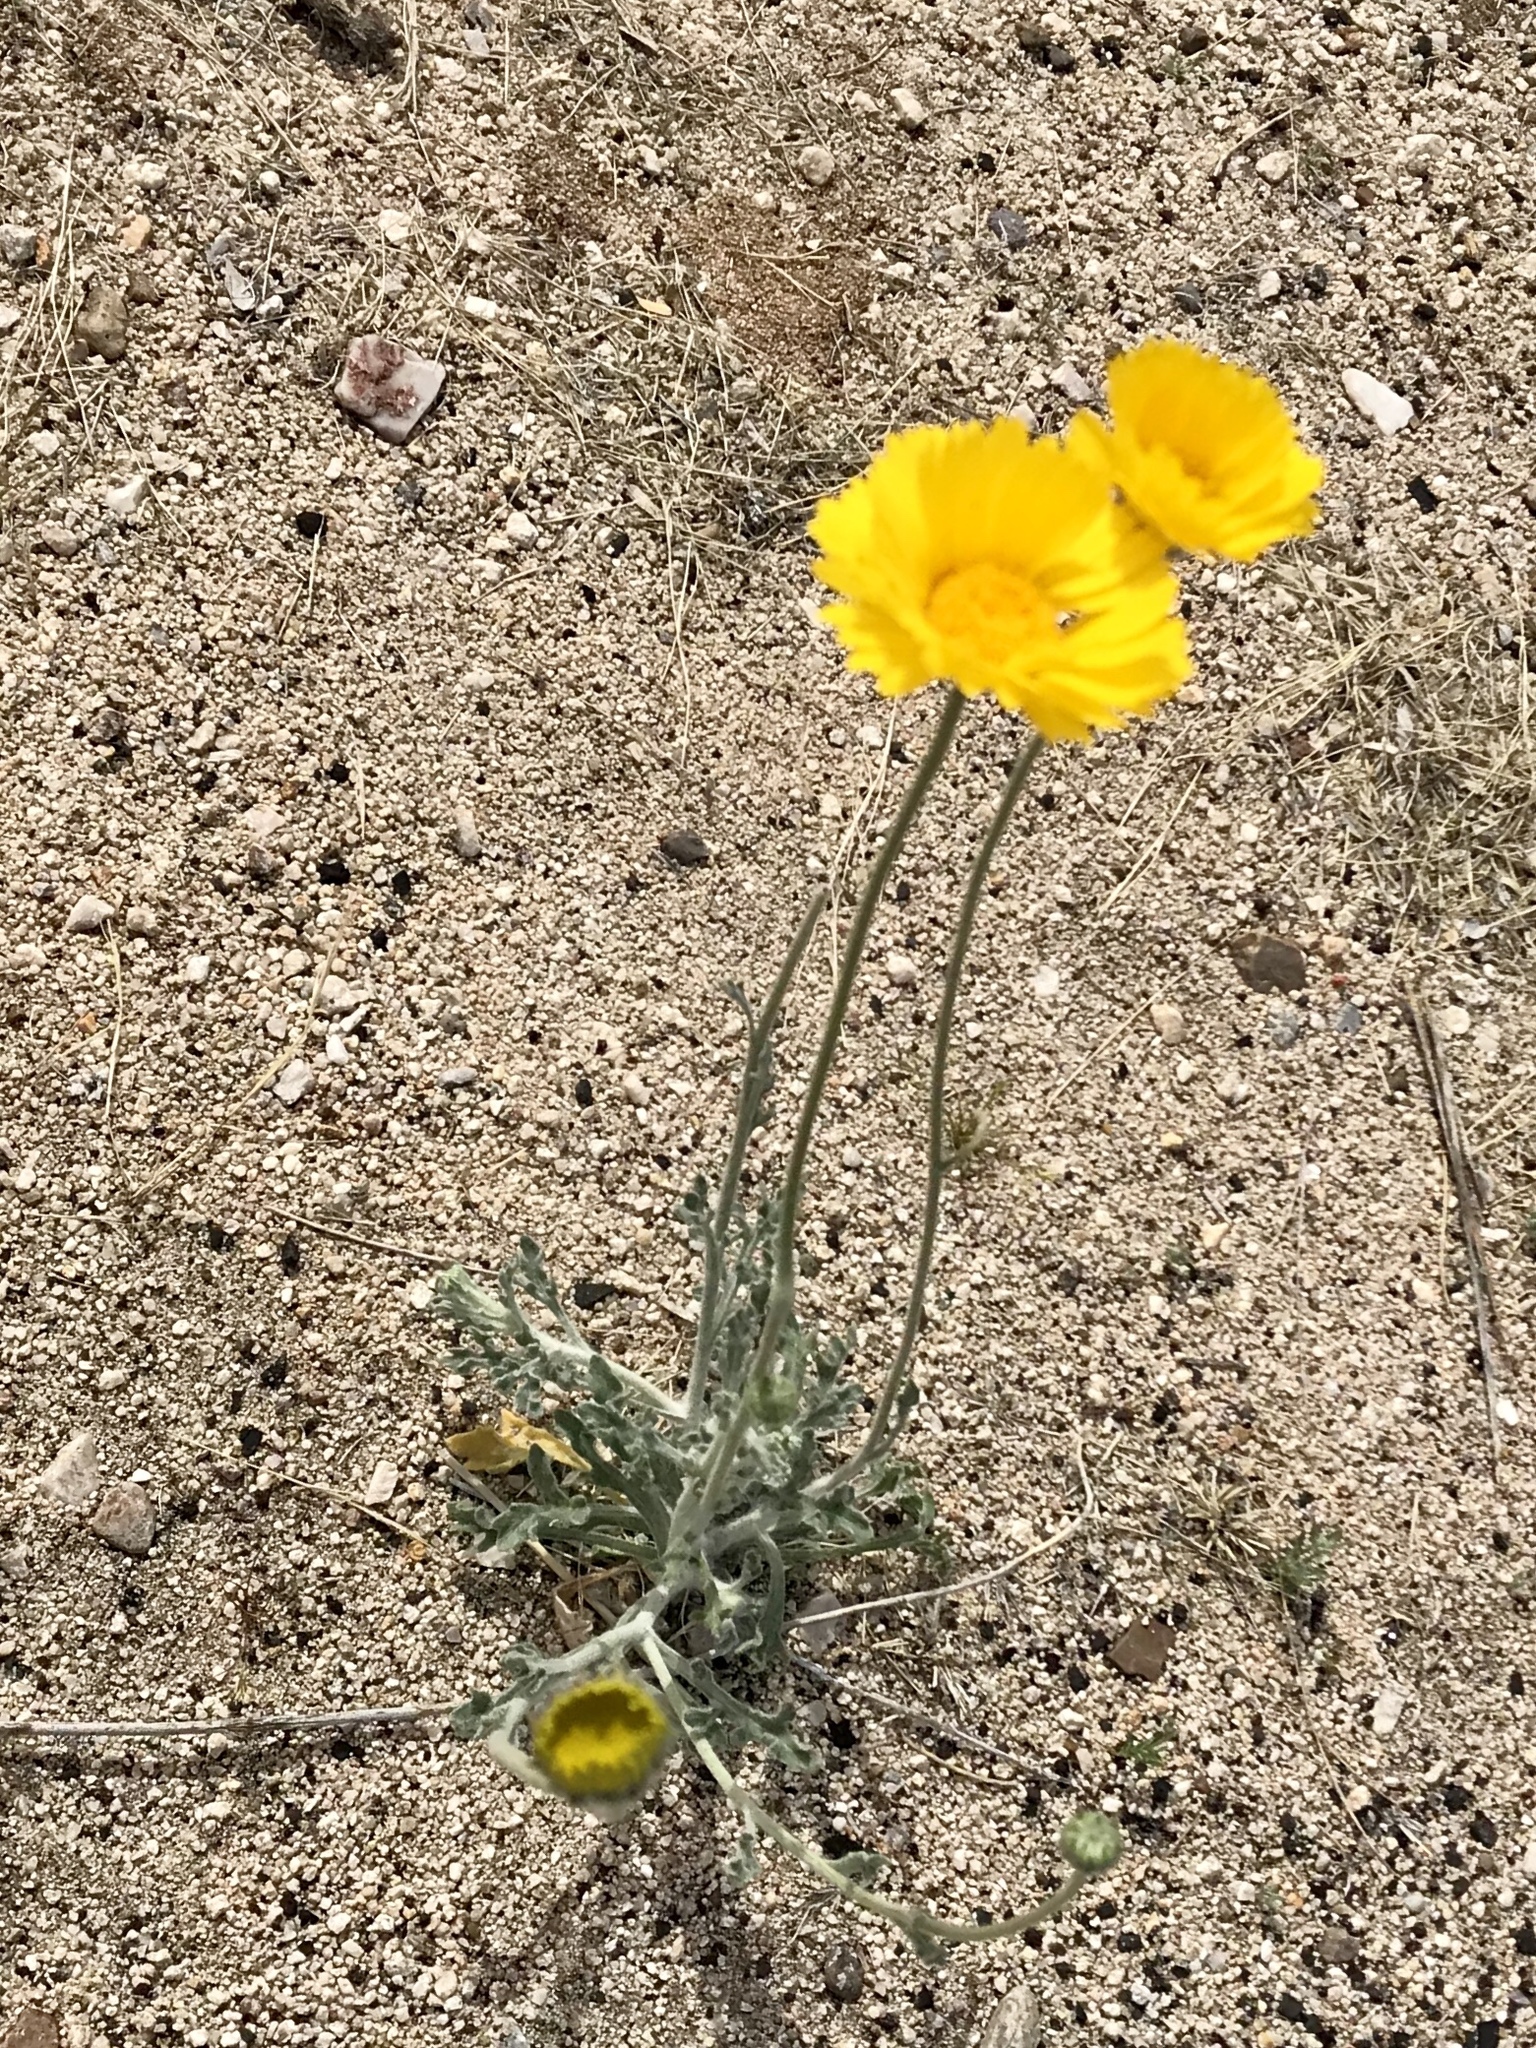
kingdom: Plantae
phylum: Tracheophyta
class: Magnoliopsida
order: Asterales
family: Asteraceae
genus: Baileya
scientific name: Baileya multiradiata
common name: Desert-marigold
